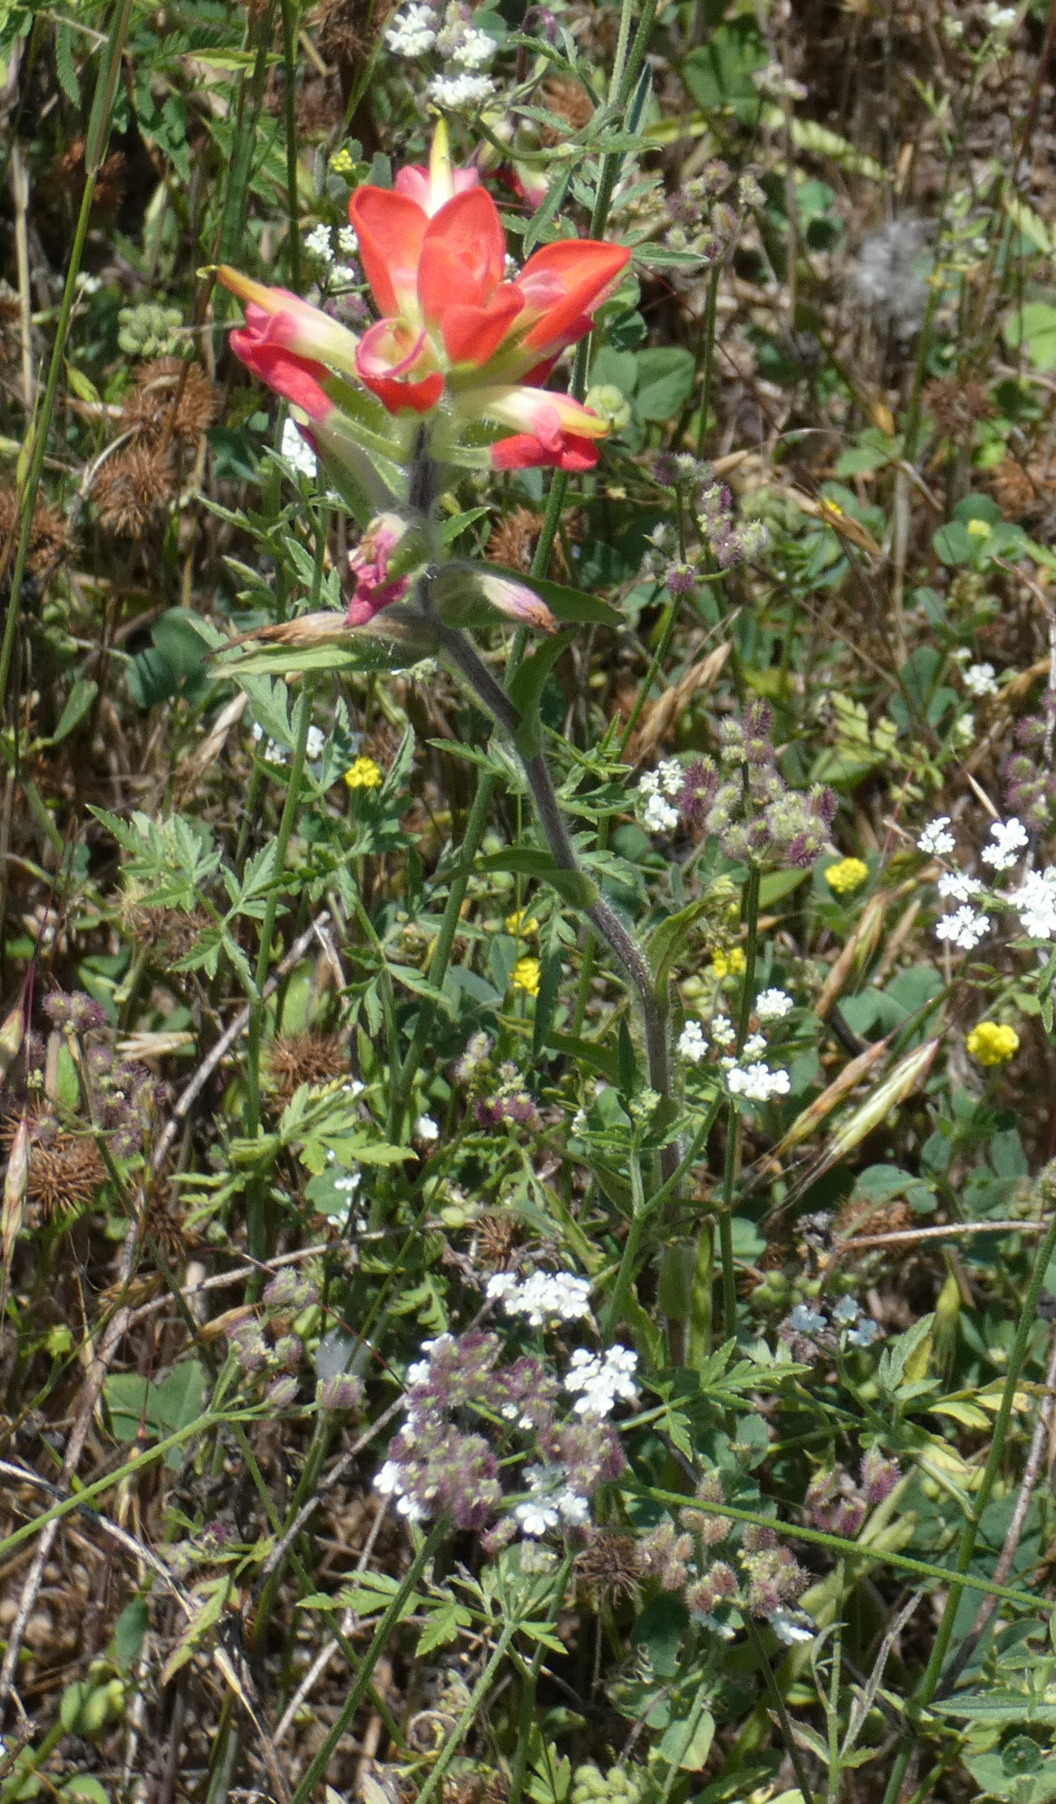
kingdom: Plantae
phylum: Tracheophyta
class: Magnoliopsida
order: Lamiales
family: Orobanchaceae
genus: Castilleja
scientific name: Castilleja indivisa
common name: Texas paintbrush
